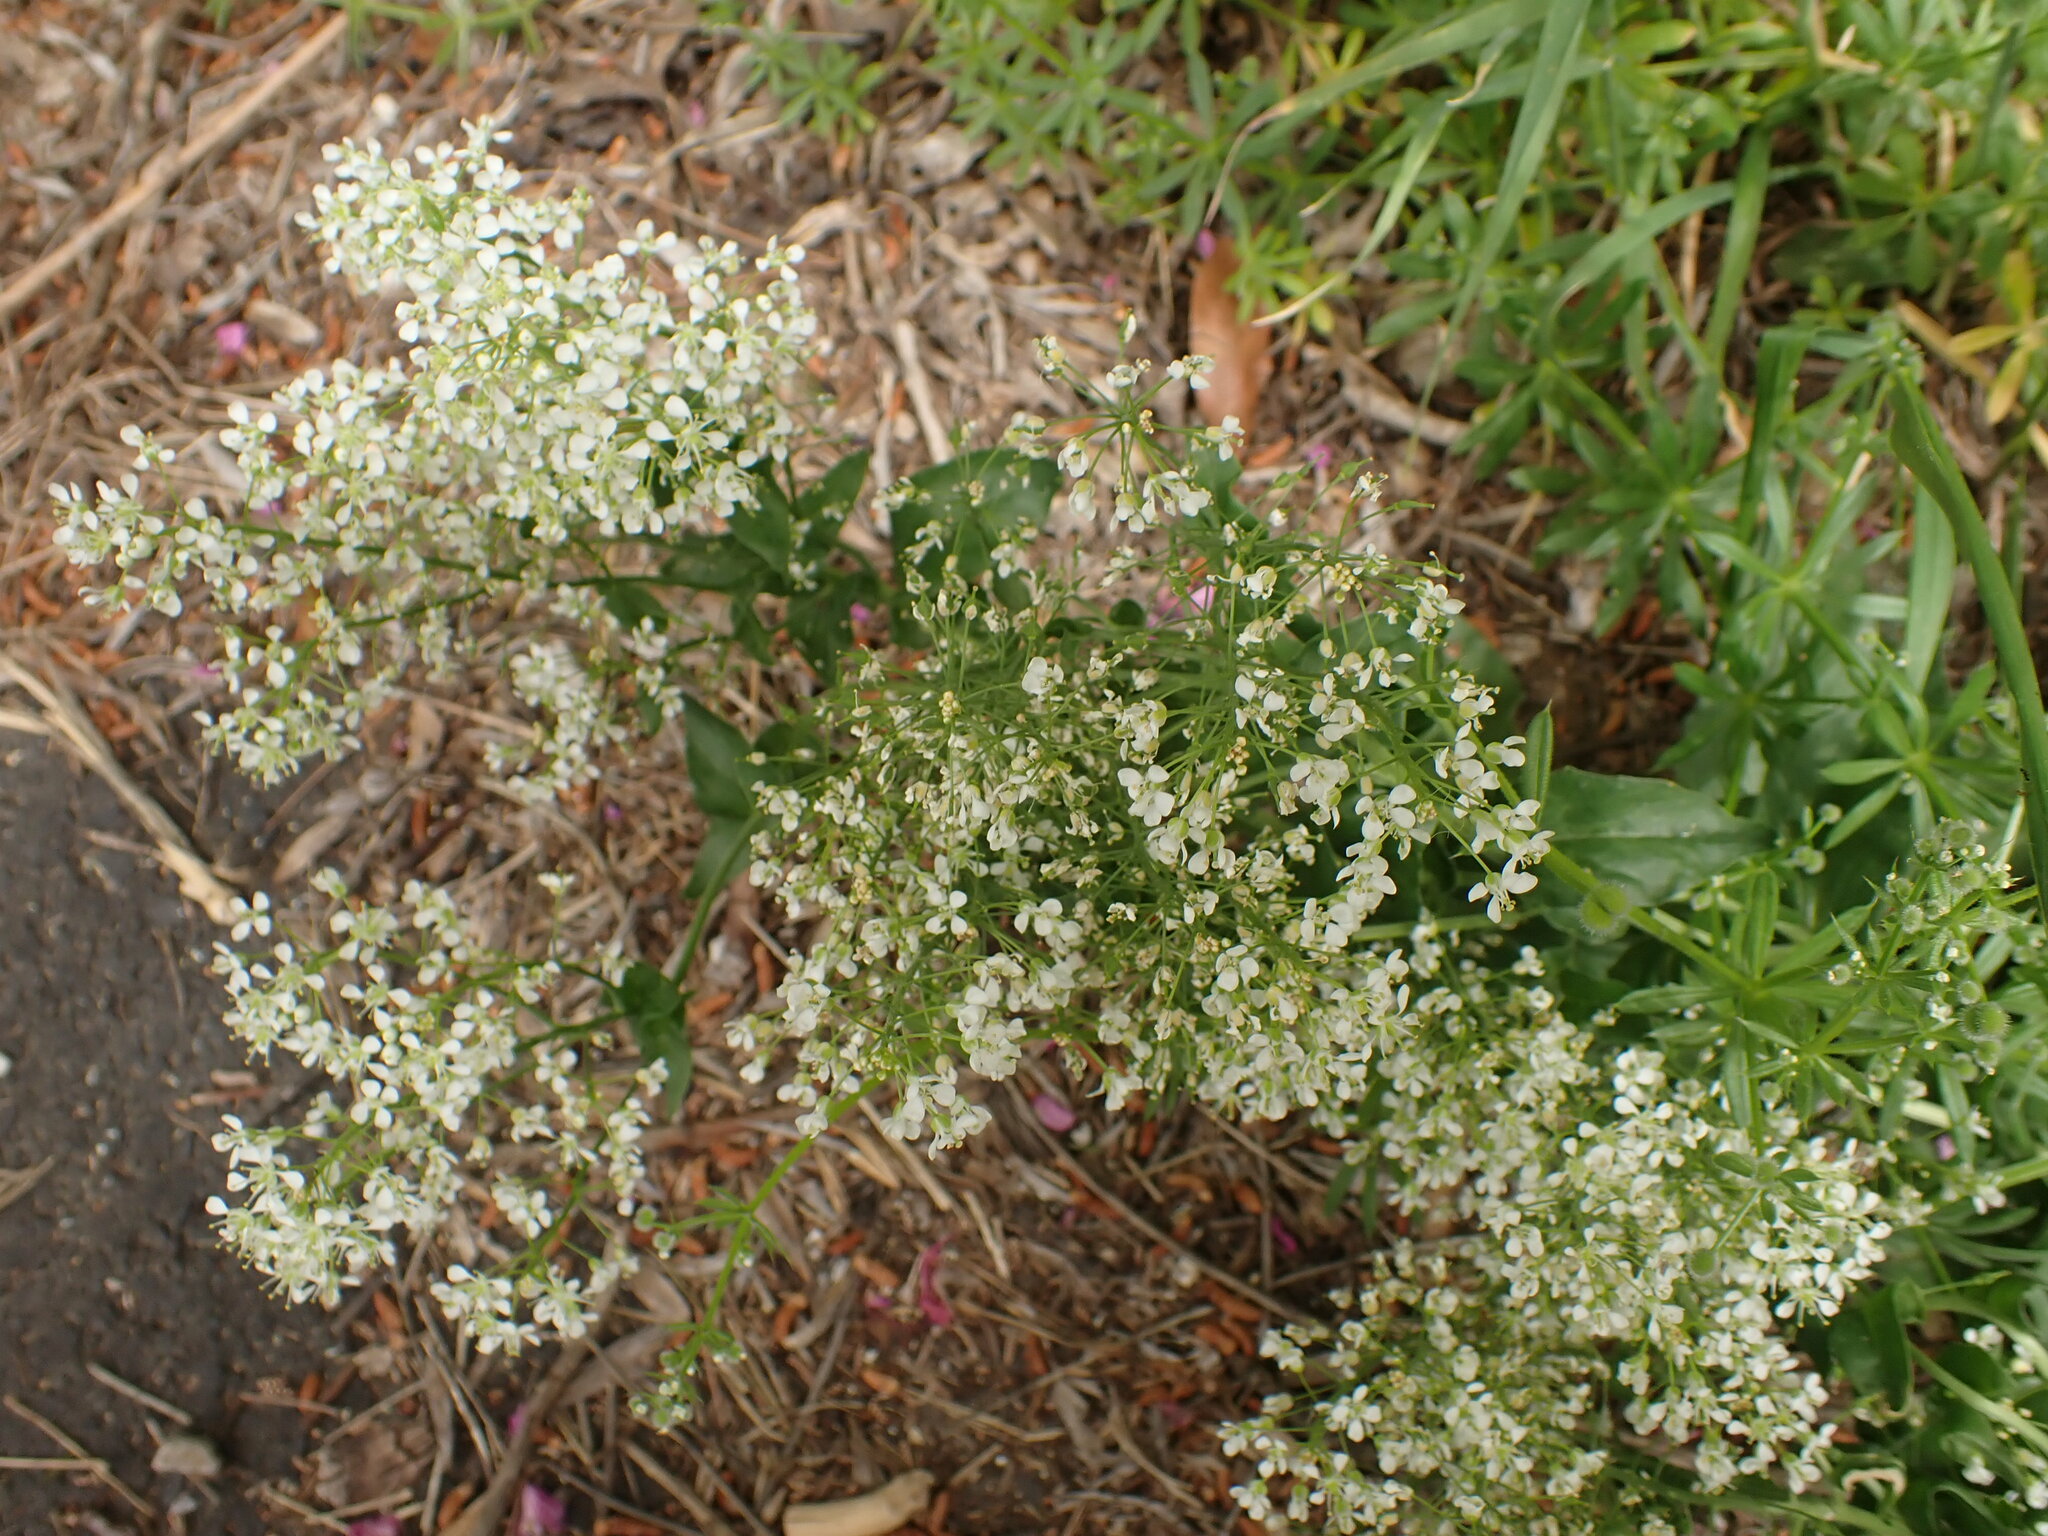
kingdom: Plantae
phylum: Tracheophyta
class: Magnoliopsida
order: Brassicales
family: Brassicaceae
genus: Lepidium
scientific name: Lepidium draba
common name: Hoary cress
